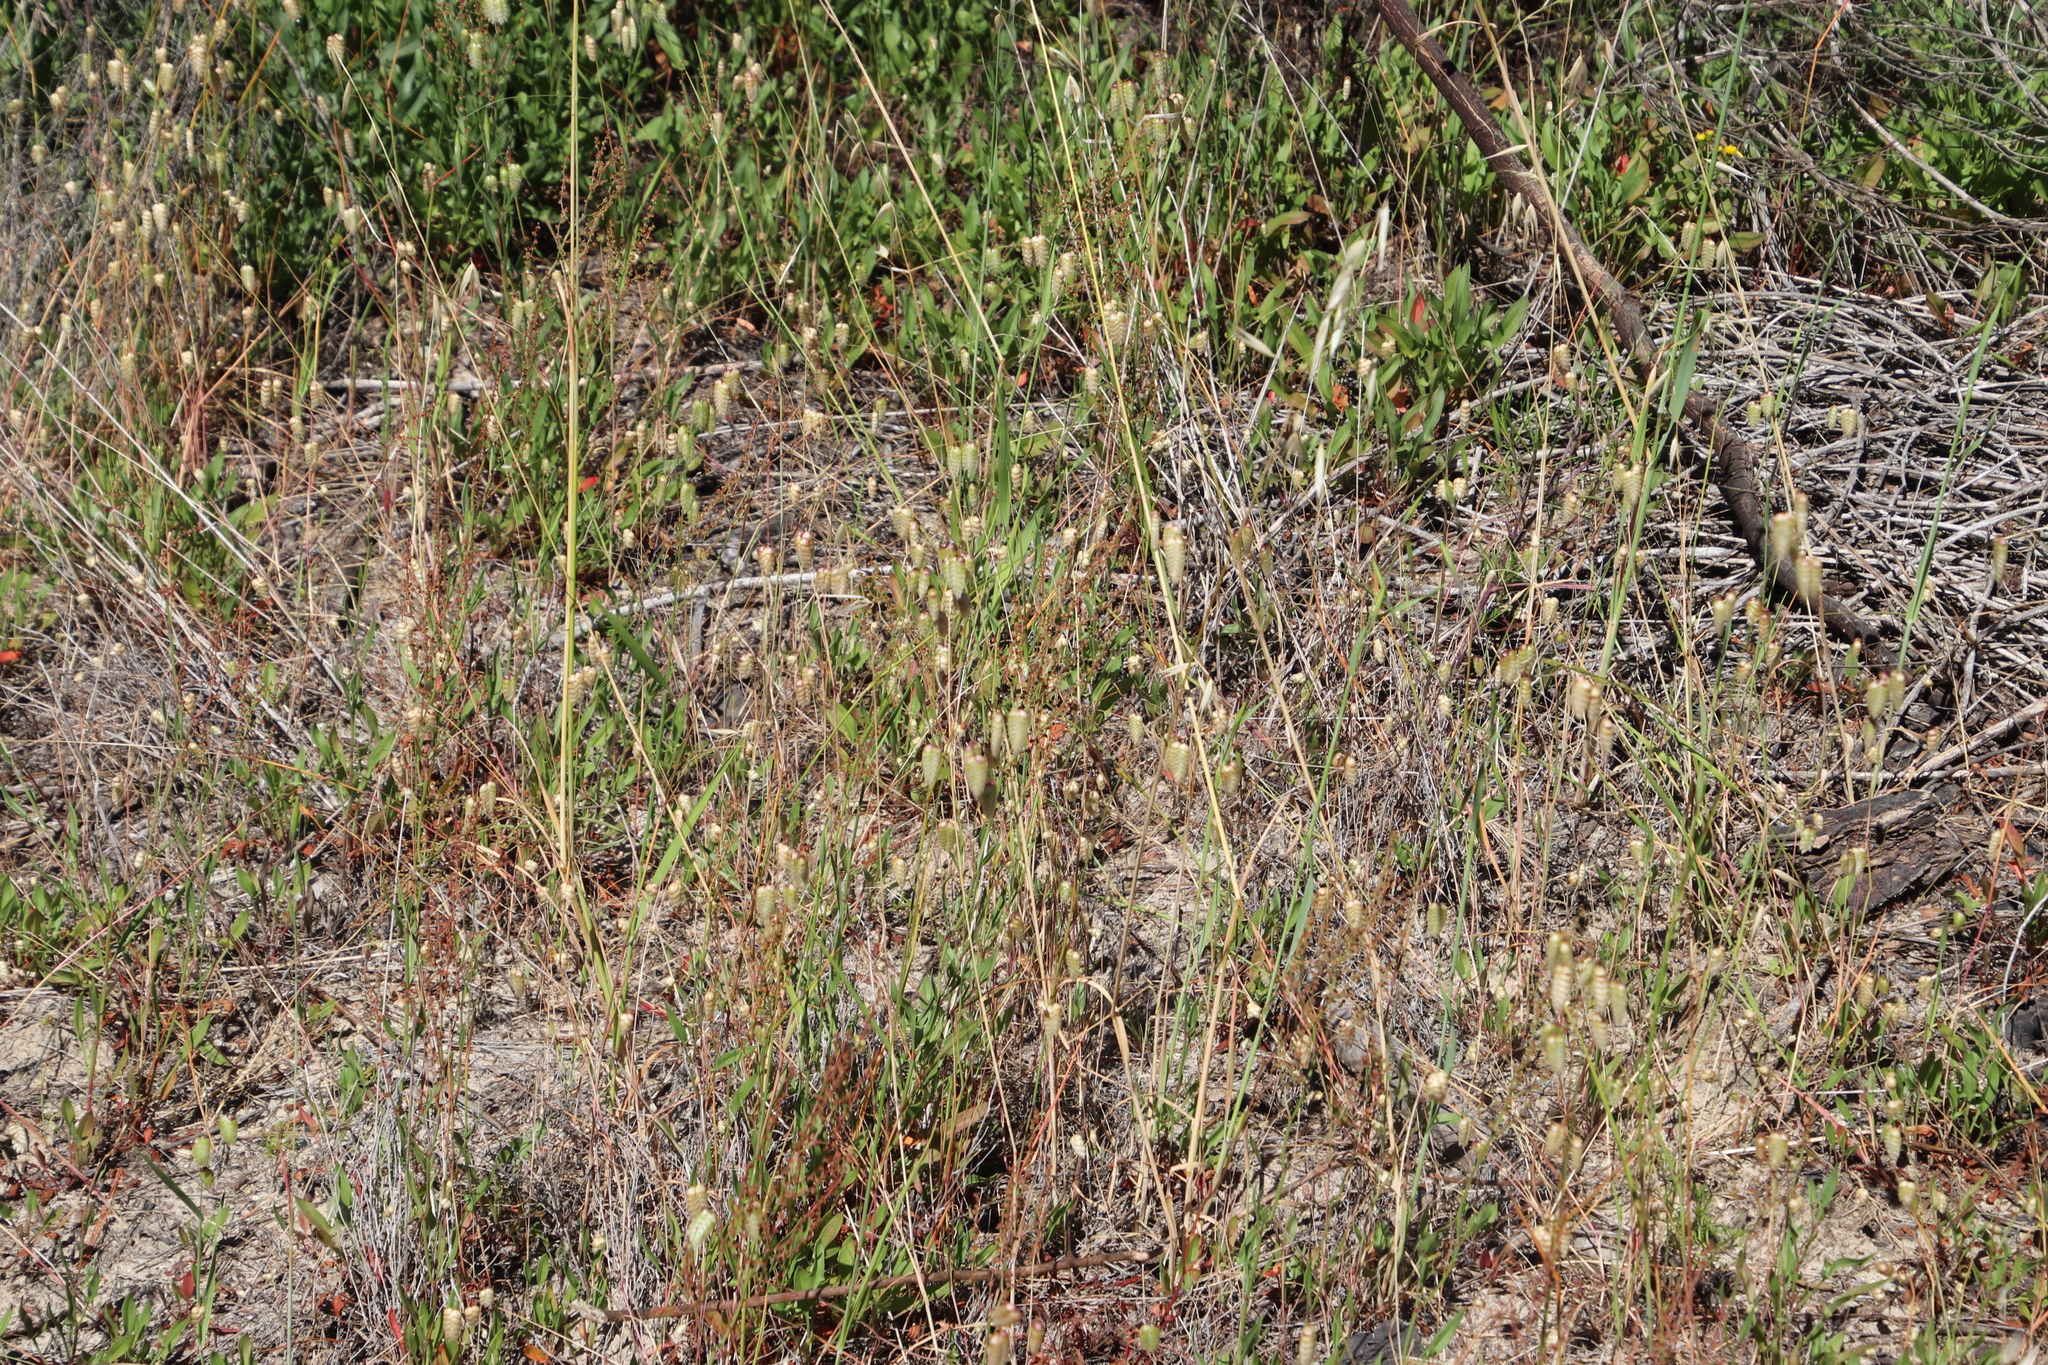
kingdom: Plantae
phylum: Tracheophyta
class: Liliopsida
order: Poales
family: Poaceae
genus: Briza
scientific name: Briza maxima
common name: Big quakinggrass
